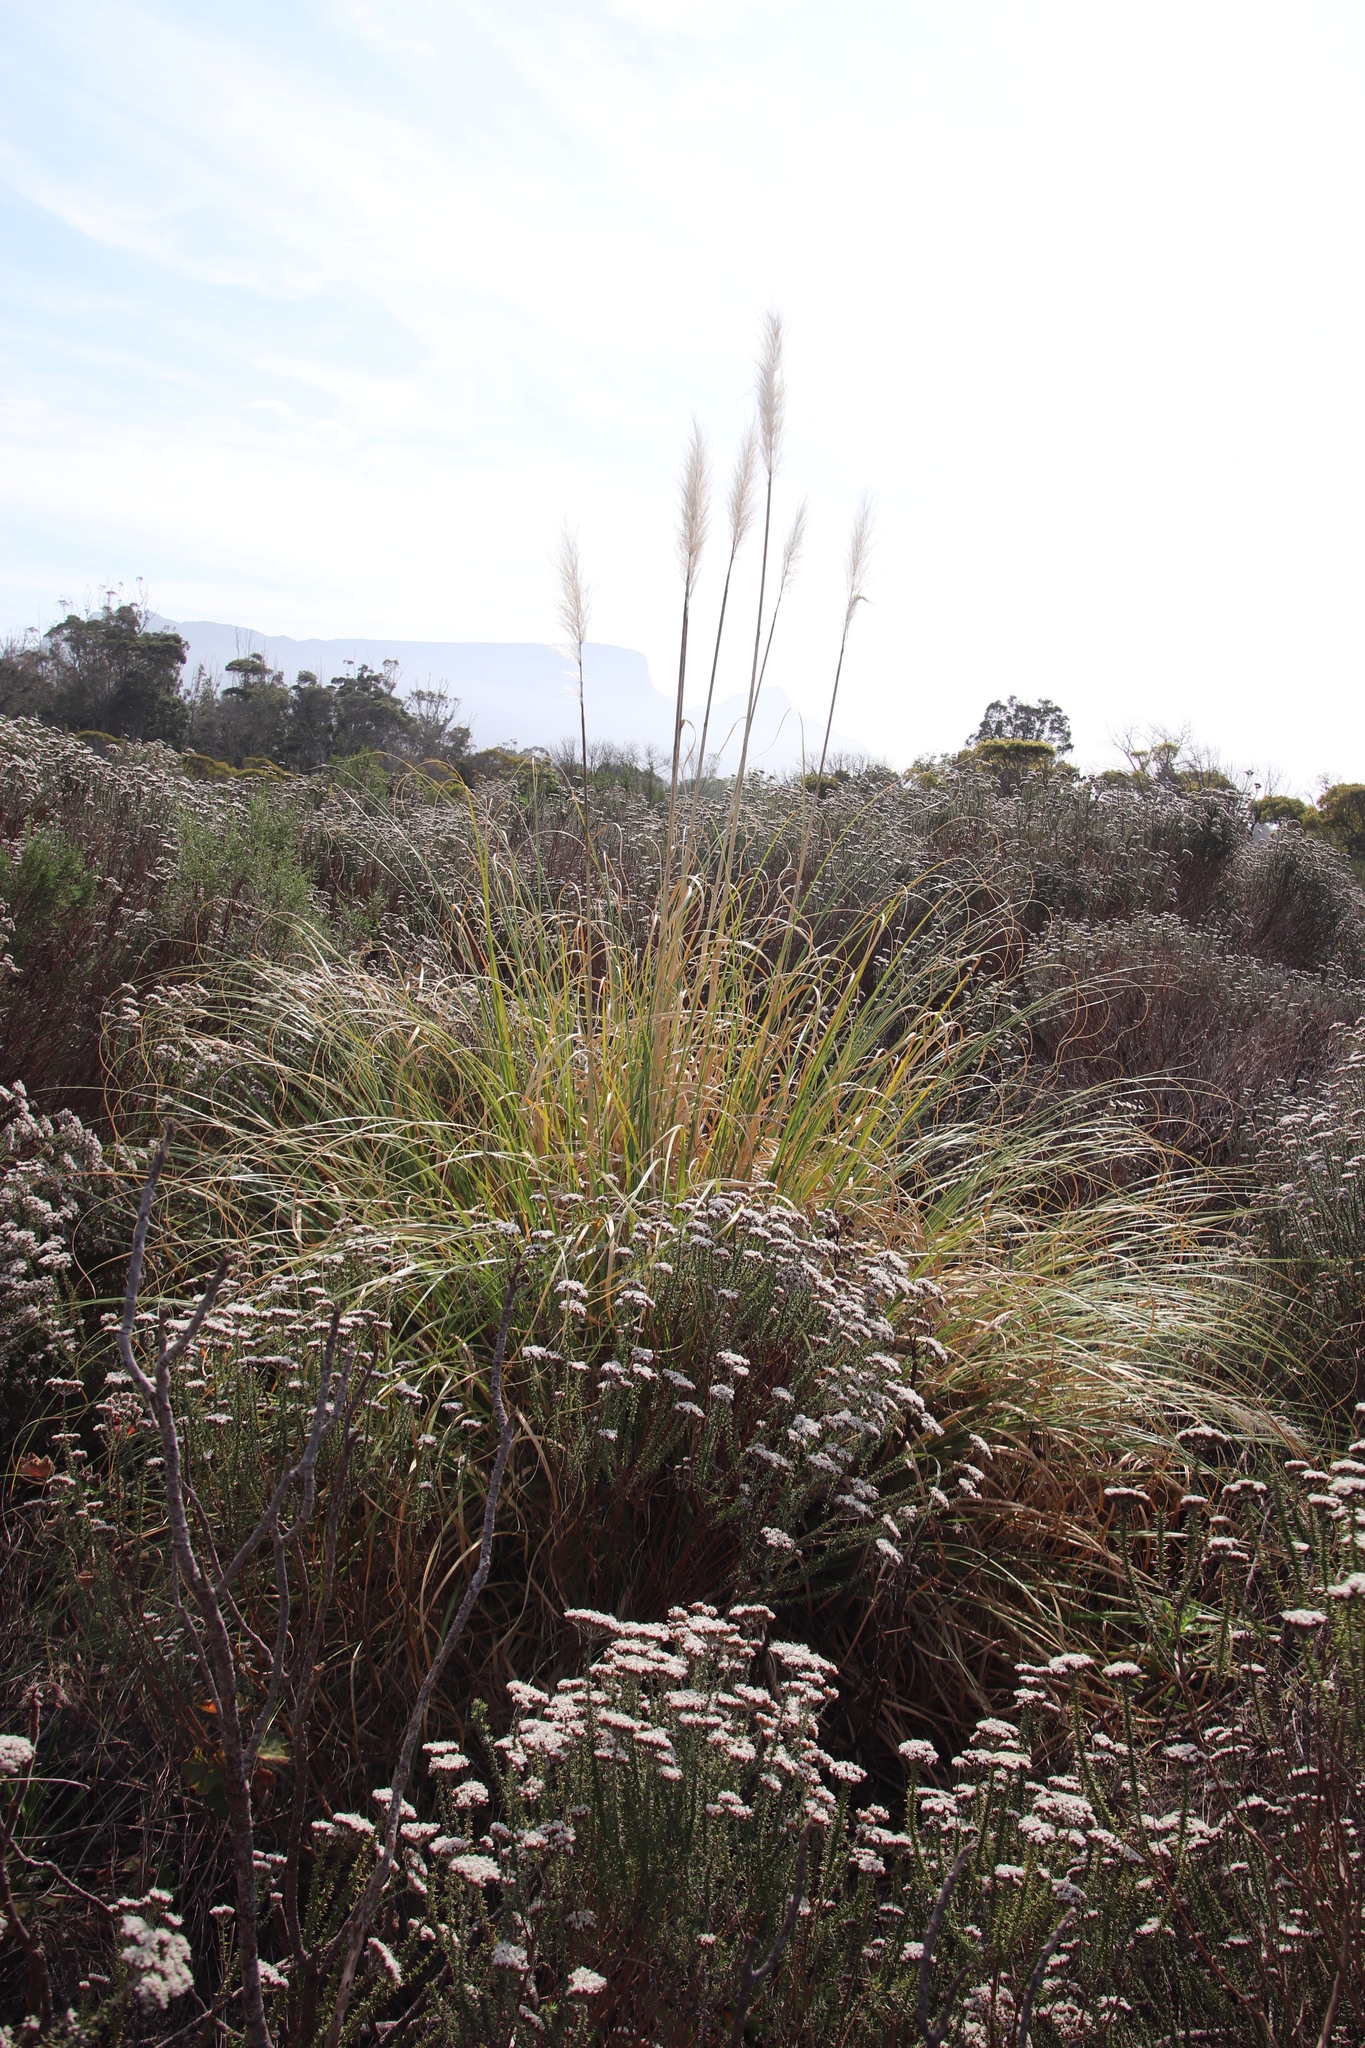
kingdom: Plantae
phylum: Tracheophyta
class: Liliopsida
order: Poales
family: Poaceae
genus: Cortaderia
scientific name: Cortaderia selloana
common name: Uruguayan pampas grass
